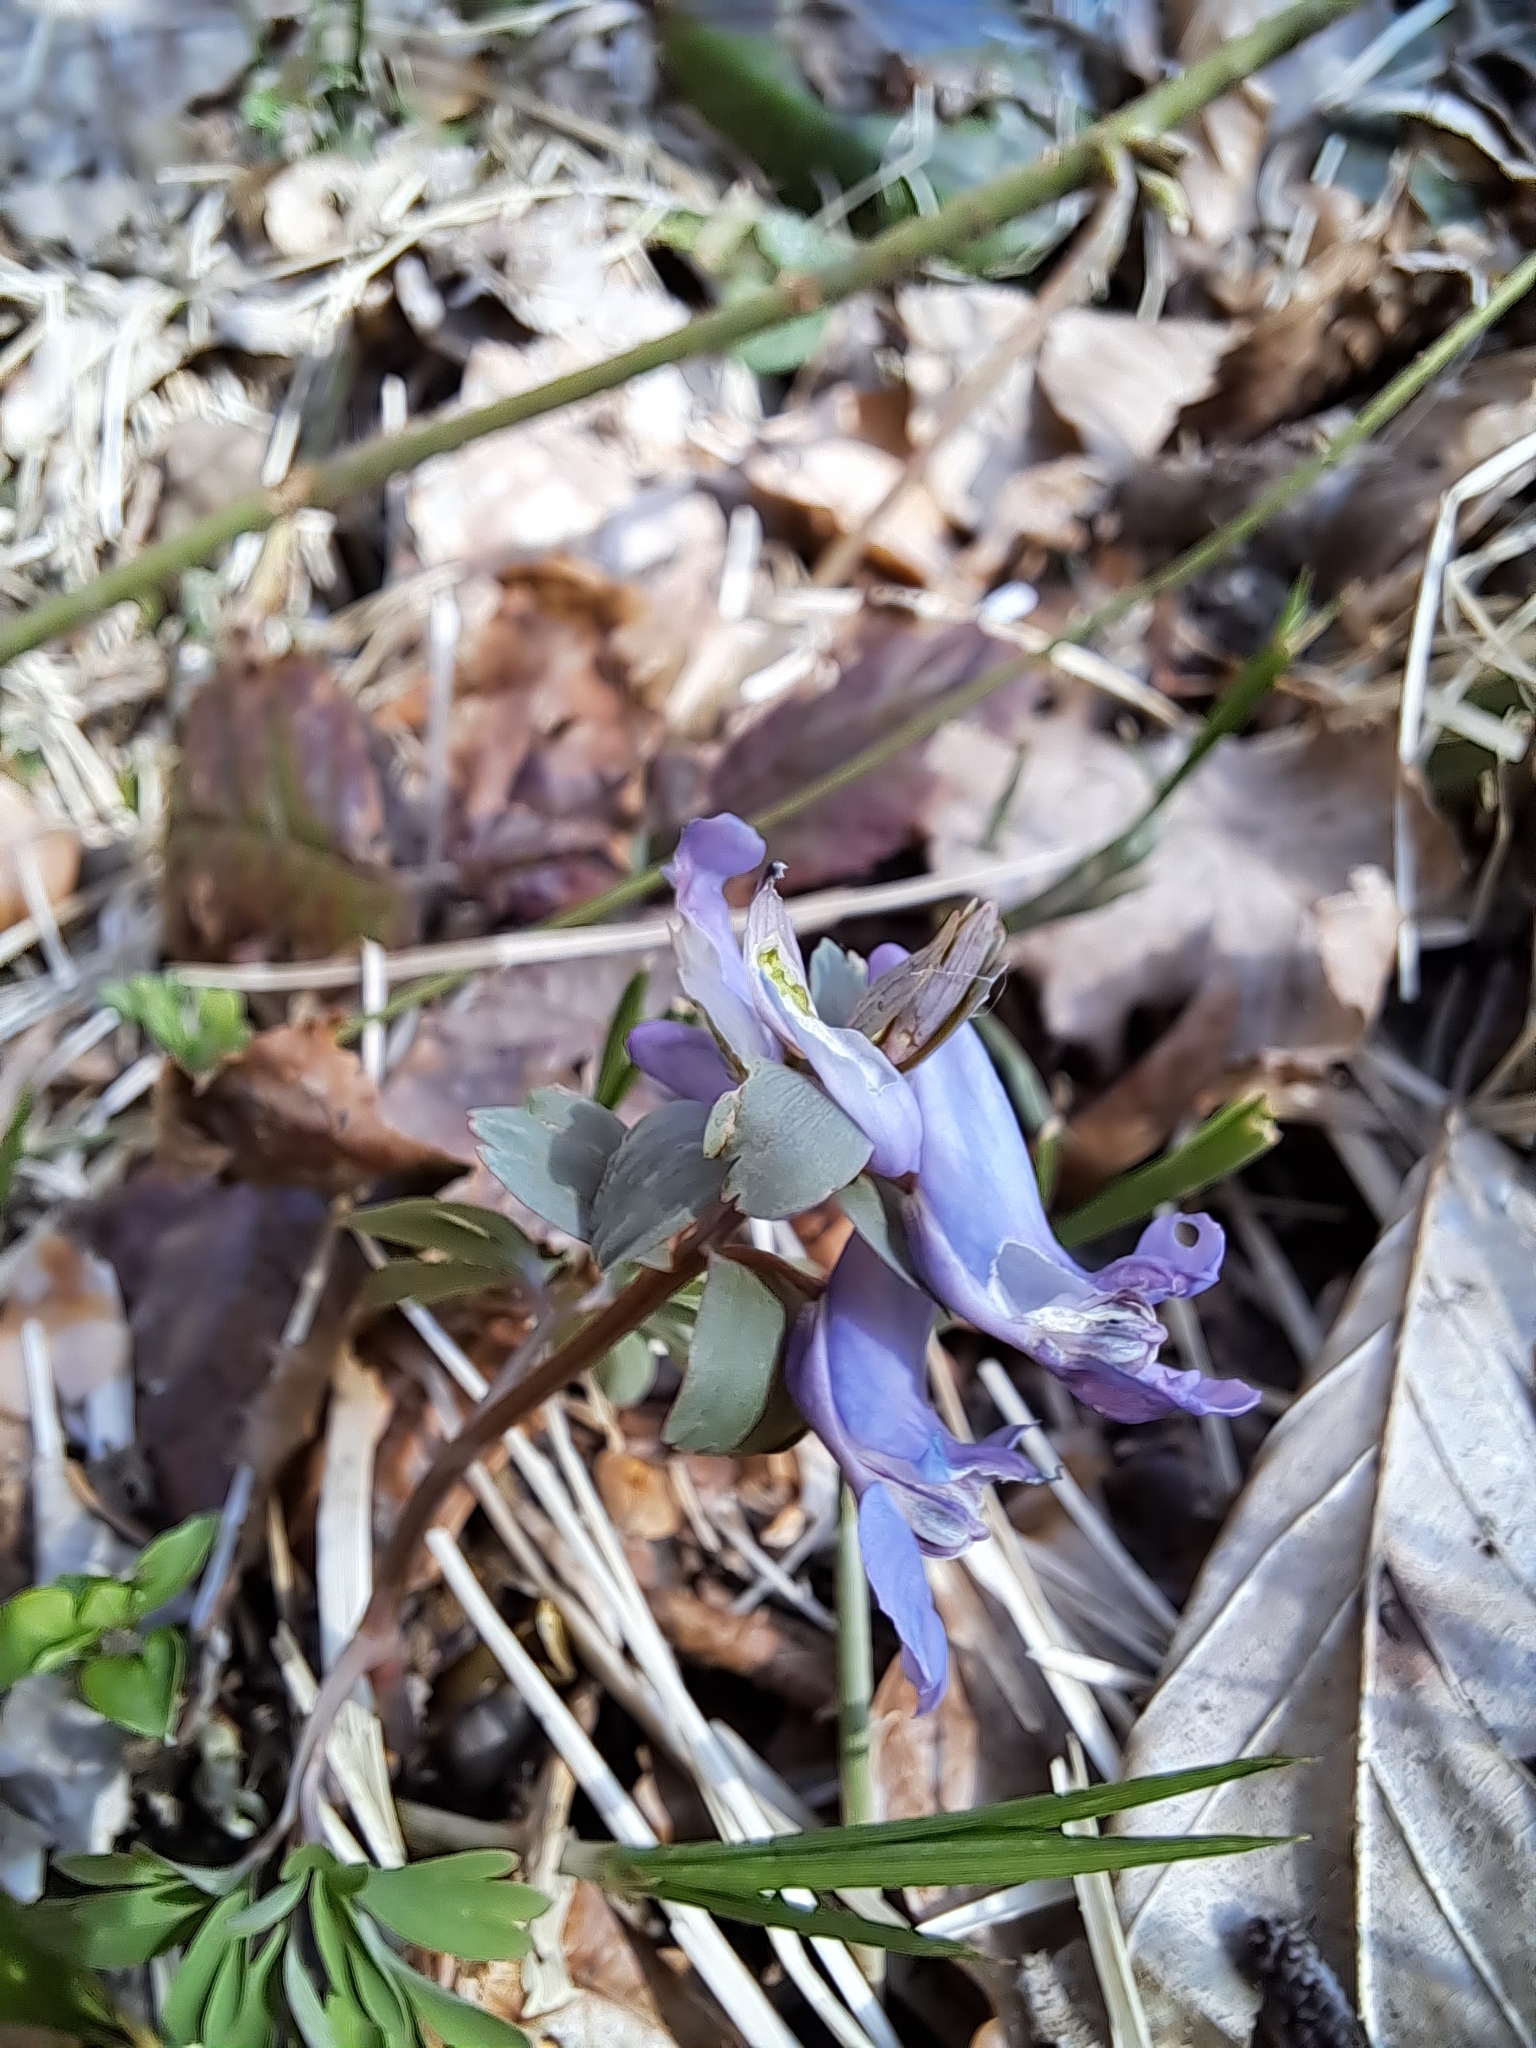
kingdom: Plantae
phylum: Tracheophyta
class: Magnoliopsida
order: Ranunculales
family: Papaveraceae
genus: Corydalis
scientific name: Corydalis solida
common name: Bird-in-a-bush
